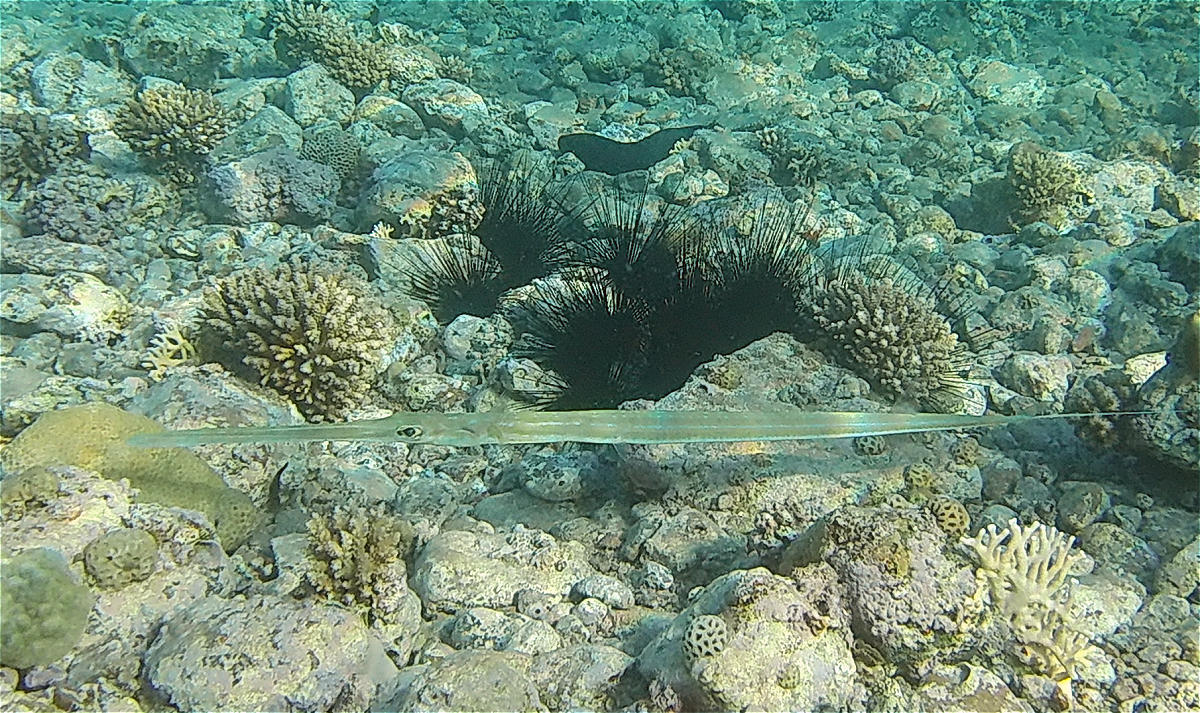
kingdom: Animalia
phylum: Chordata
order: Syngnathiformes
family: Fistulariidae
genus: Fistularia
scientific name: Fistularia commersonii
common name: Bluespotted cornetfish
